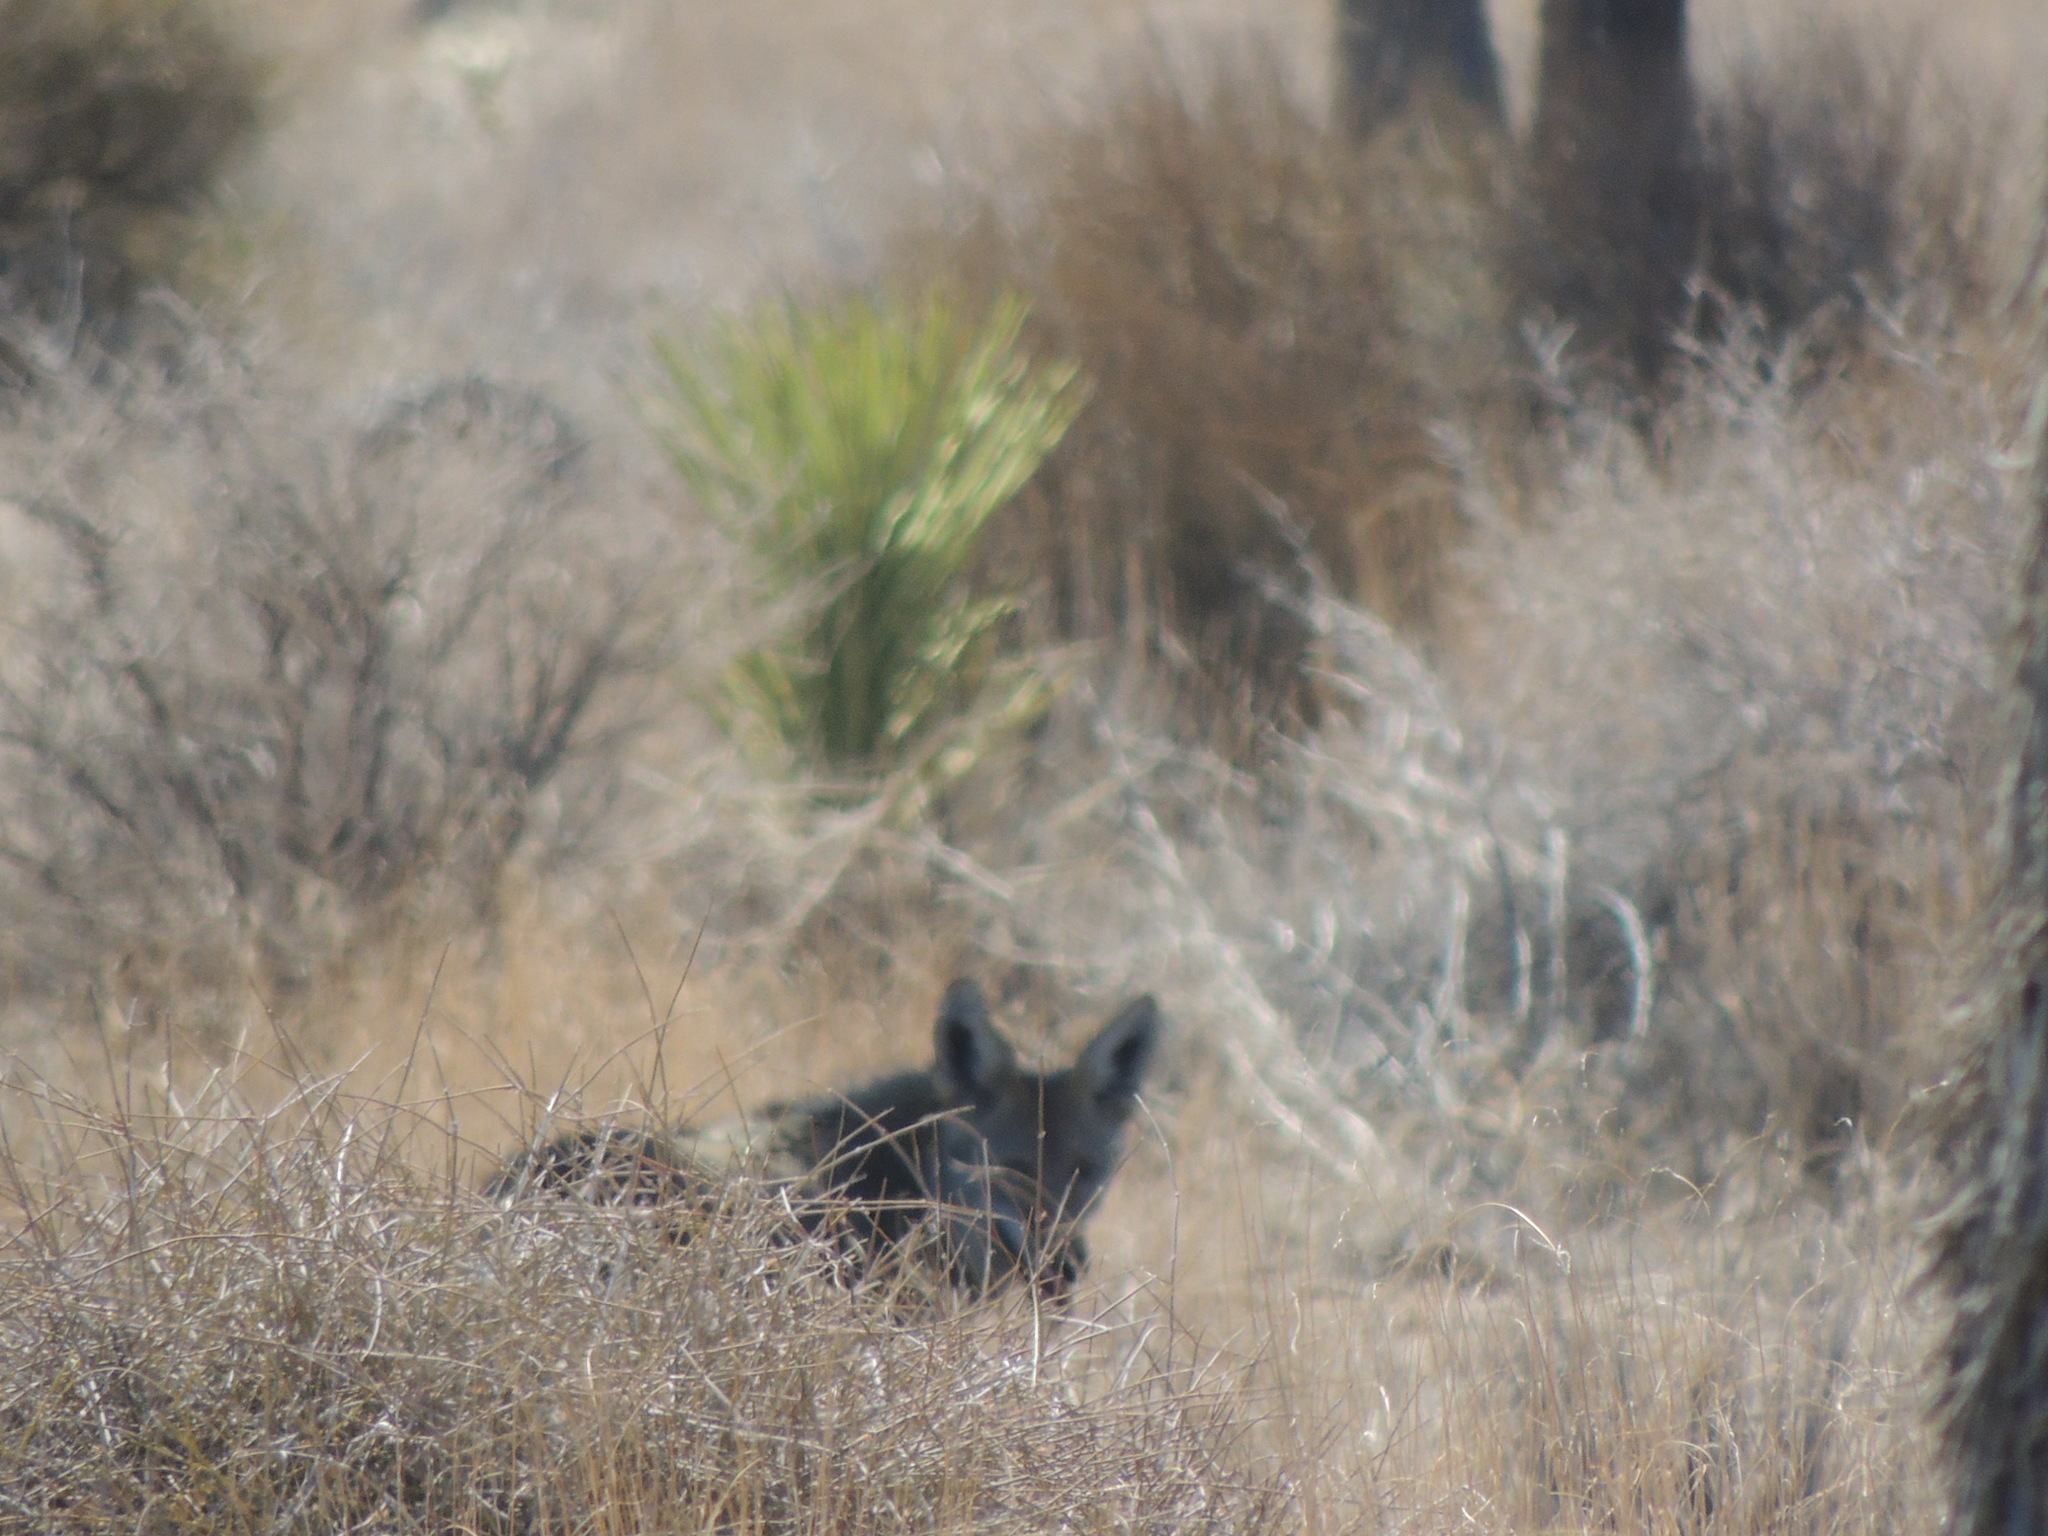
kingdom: Animalia
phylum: Chordata
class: Mammalia
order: Carnivora
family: Canidae
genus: Canis
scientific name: Canis latrans
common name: Coyote
